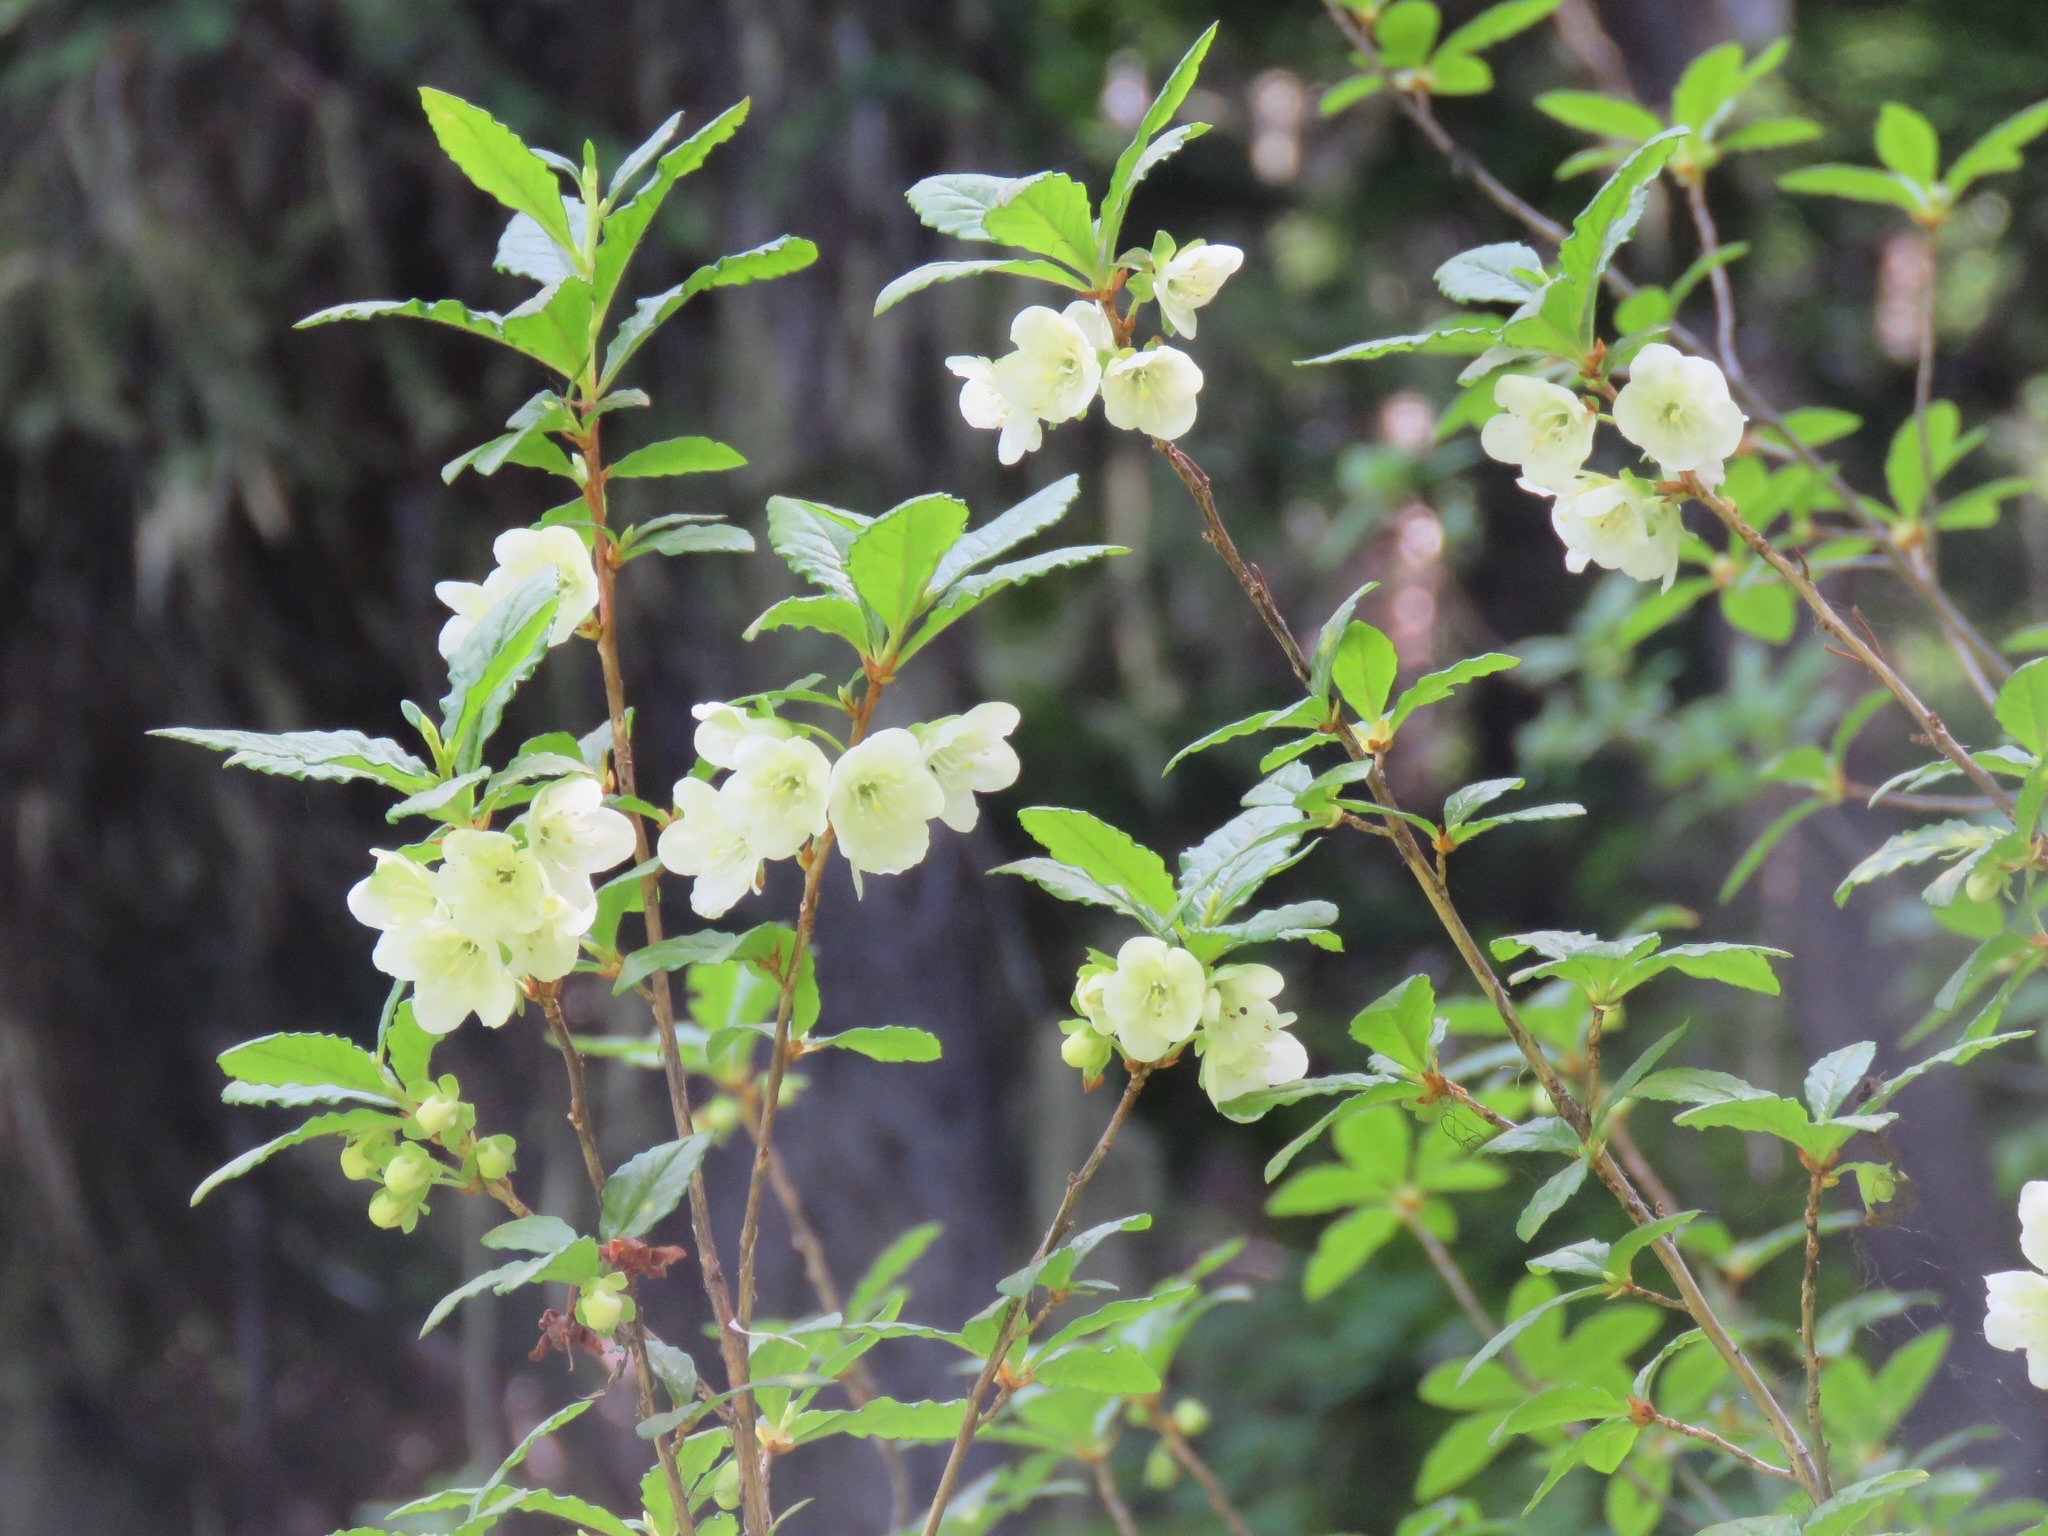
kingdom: Plantae
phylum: Tracheophyta
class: Magnoliopsida
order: Ericales
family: Ericaceae
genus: Rhododendron
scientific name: Rhododendron albiflorum
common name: White rhododendron
